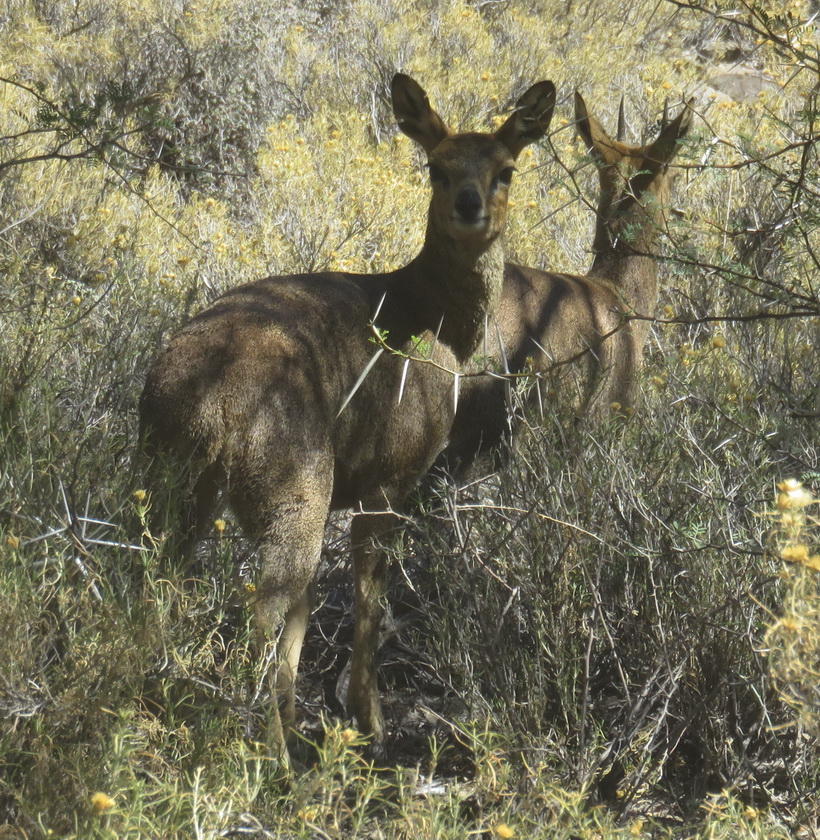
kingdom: Animalia
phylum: Chordata
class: Mammalia
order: Artiodactyla
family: Bovidae
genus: Oreotragus
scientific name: Oreotragus oreotragus
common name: Klipspringer
